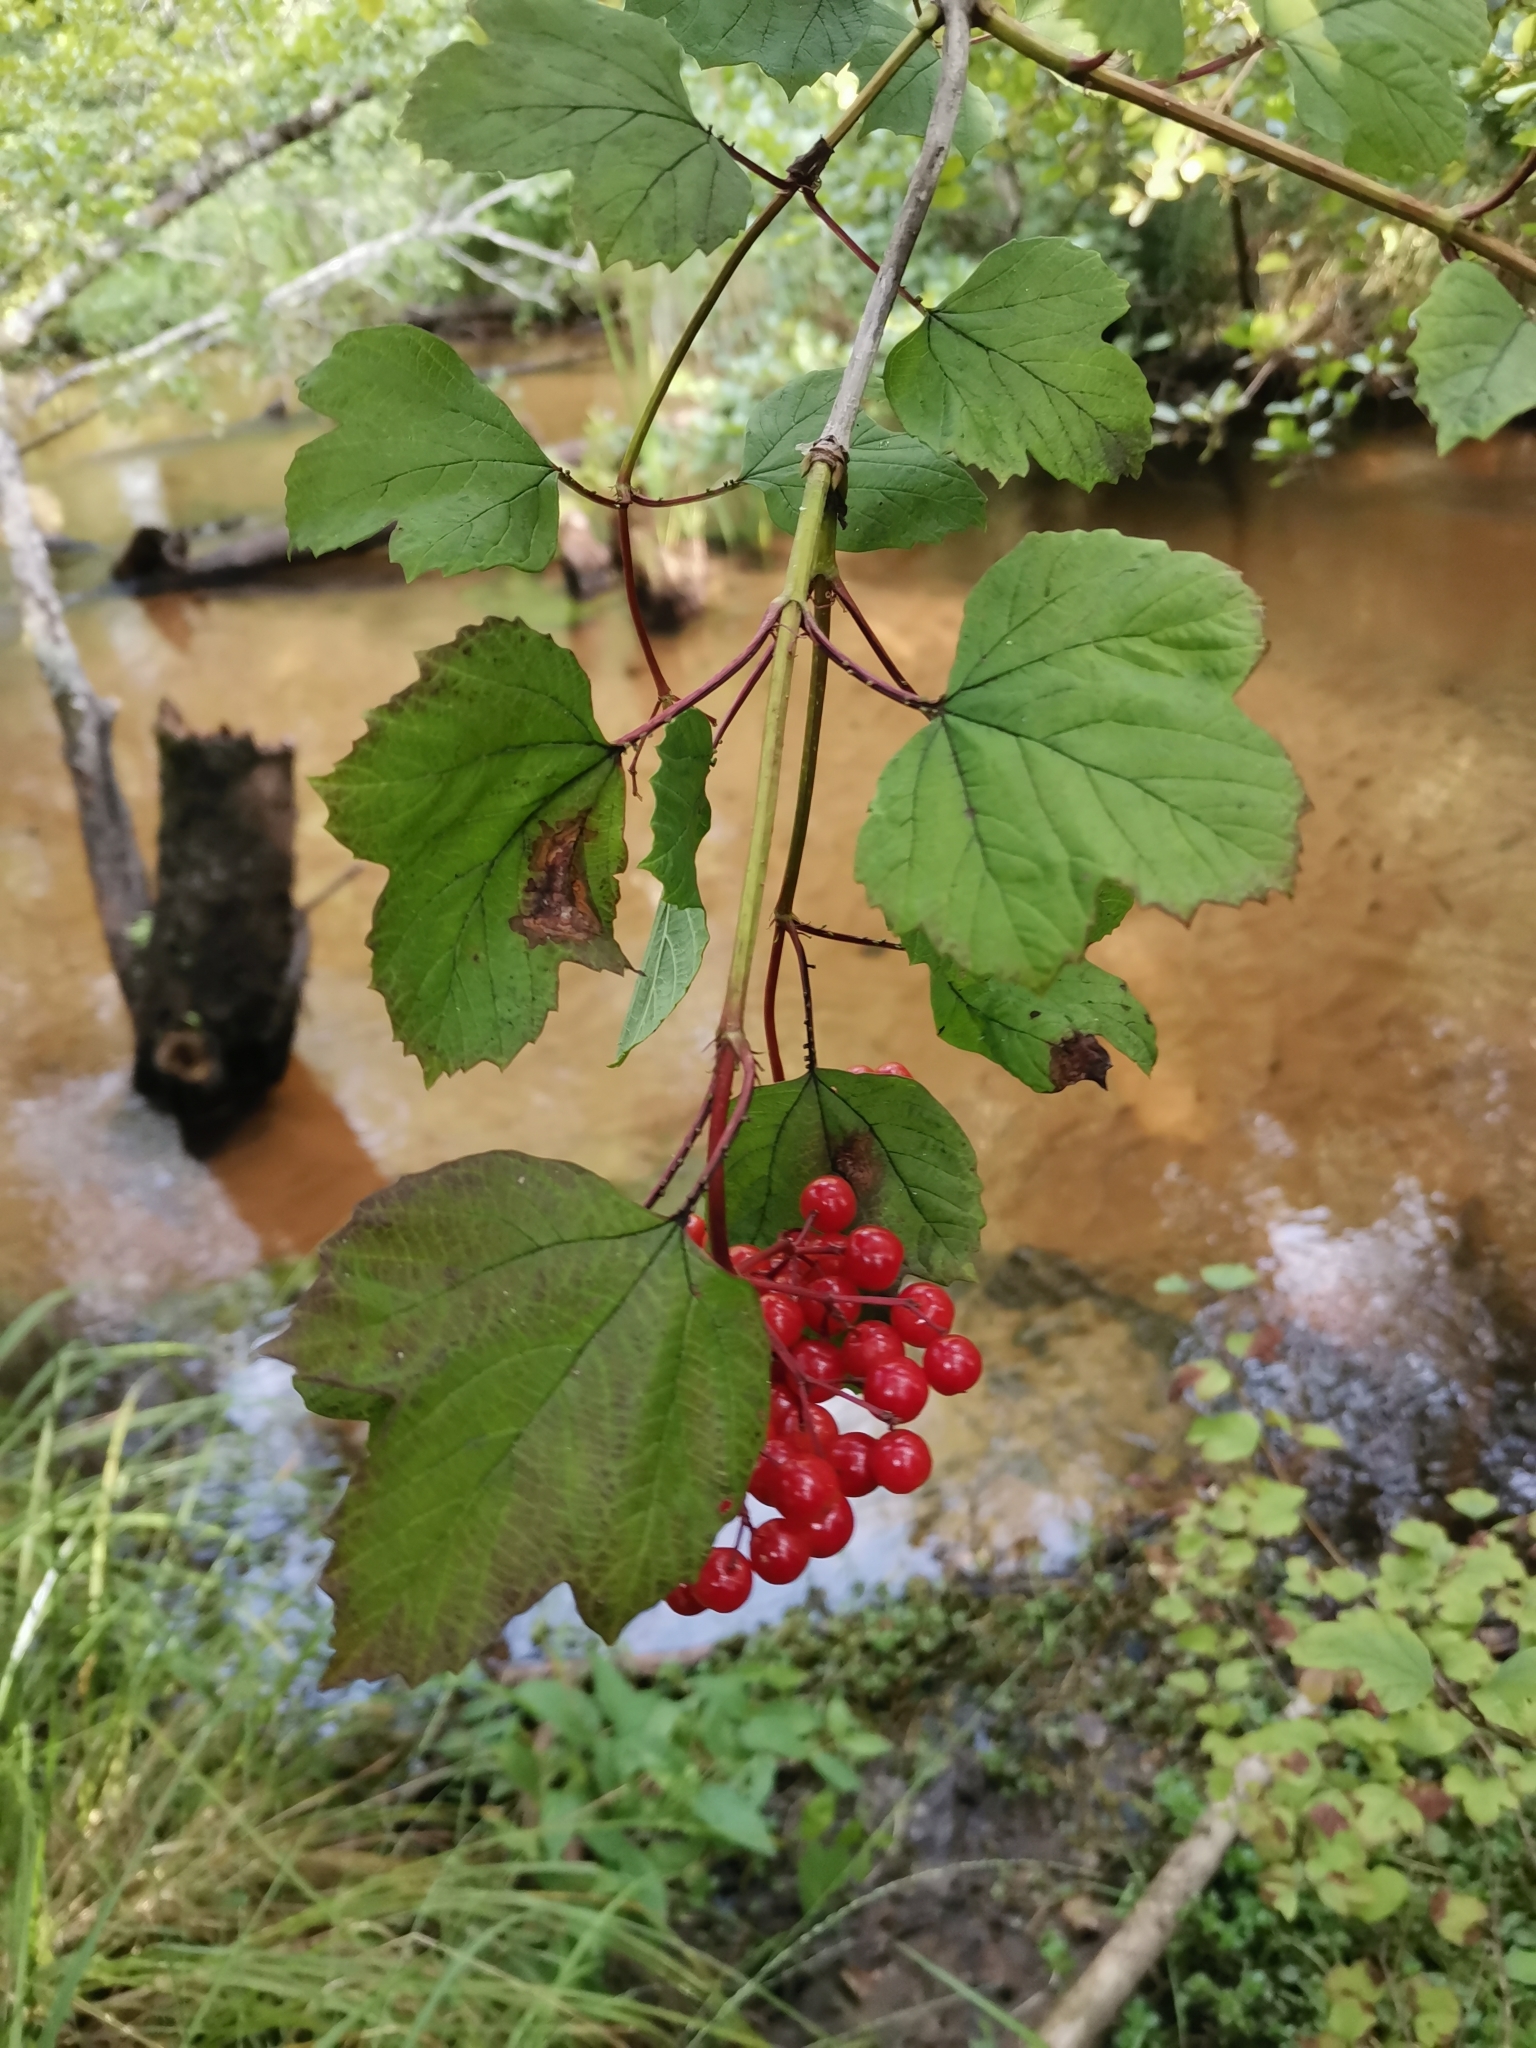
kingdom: Plantae
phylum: Tracheophyta
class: Magnoliopsida
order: Dipsacales
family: Viburnaceae
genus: Viburnum
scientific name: Viburnum opulus
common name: Guelder-rose
